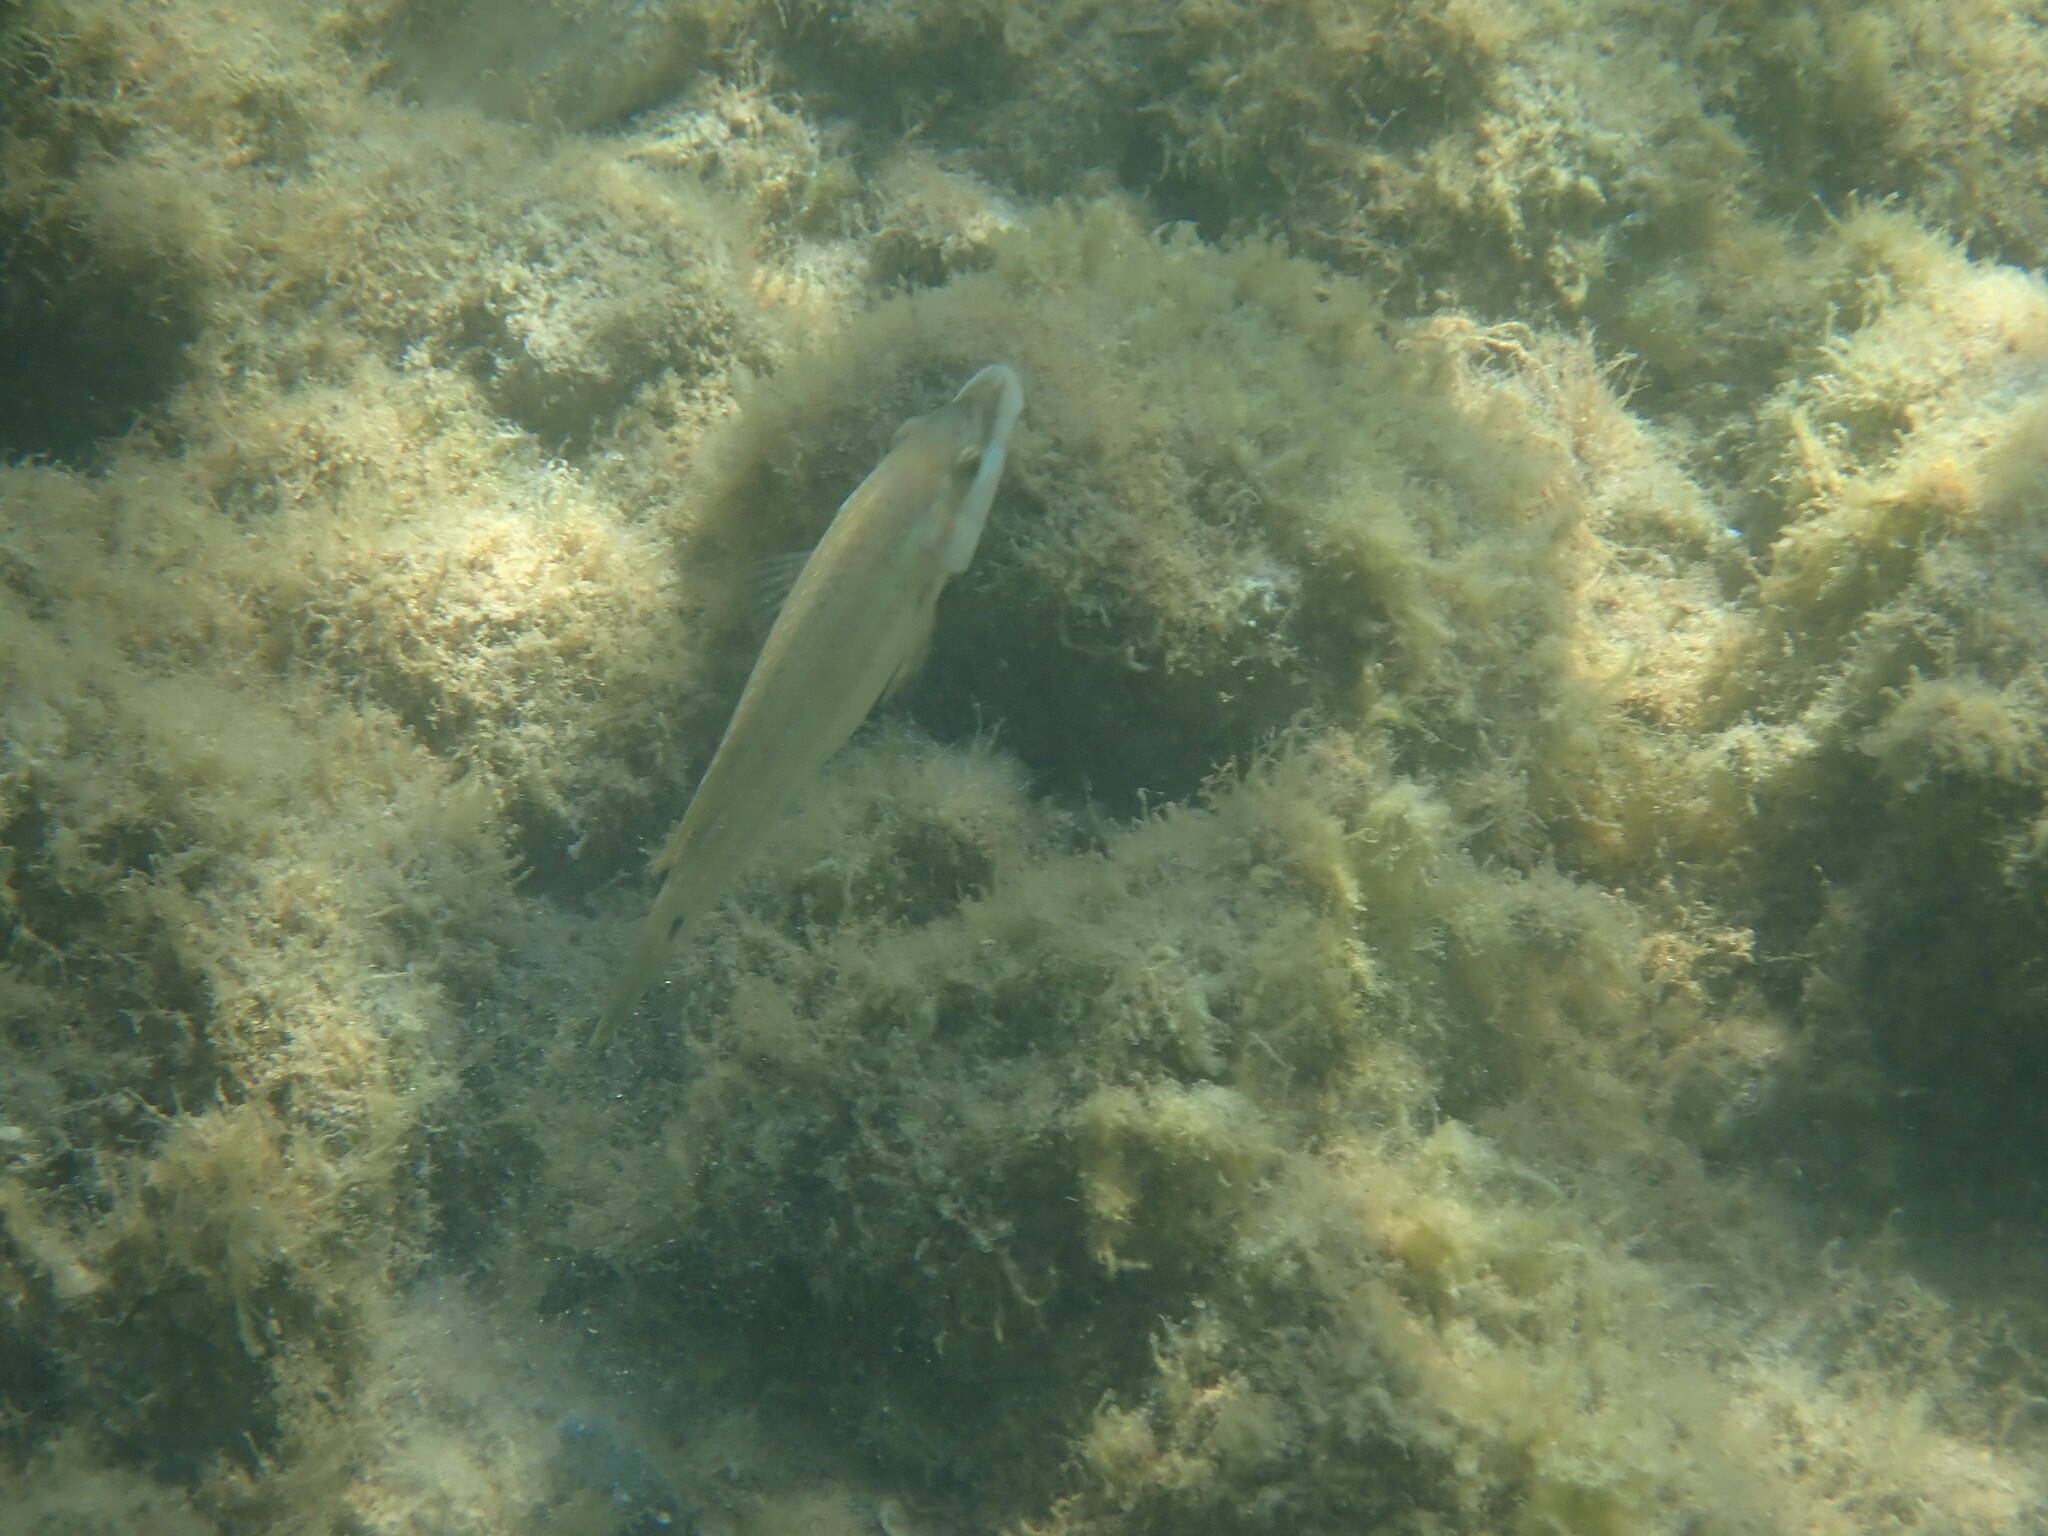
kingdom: Animalia
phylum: Chordata
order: Perciformes
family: Labridae
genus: Symphodus
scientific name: Symphodus tinca
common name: Peacock wrasse
